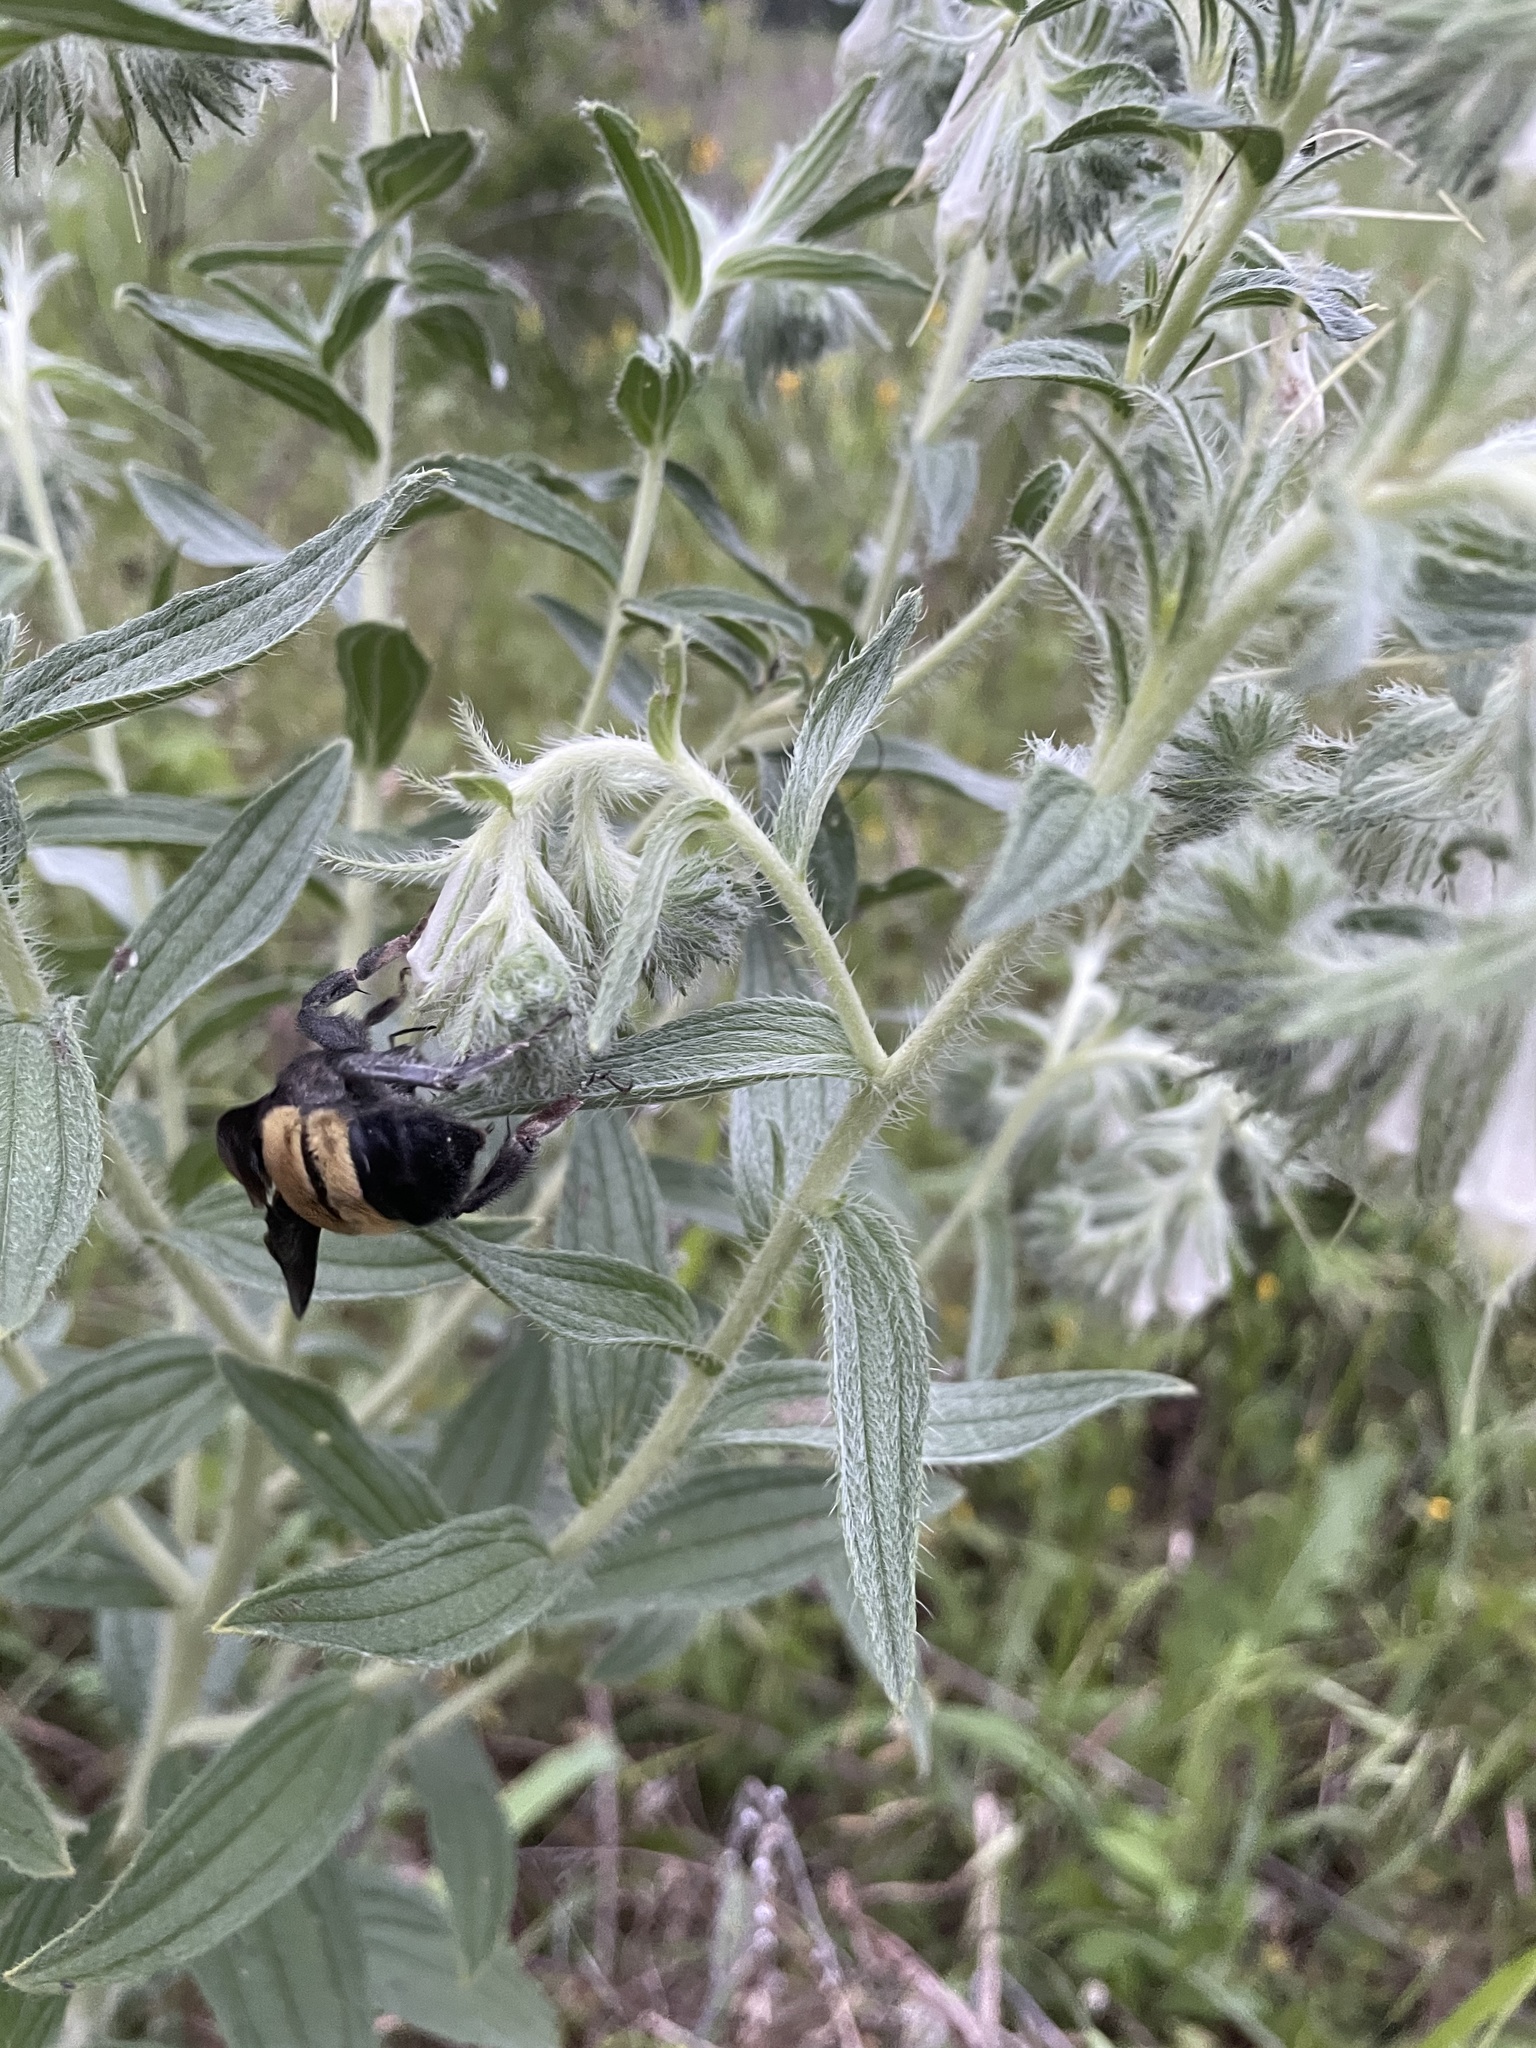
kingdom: Animalia
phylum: Arthropoda
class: Insecta
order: Hymenoptera
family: Apidae
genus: Bombus
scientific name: Bombus pensylvanicus
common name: Bumble bee
